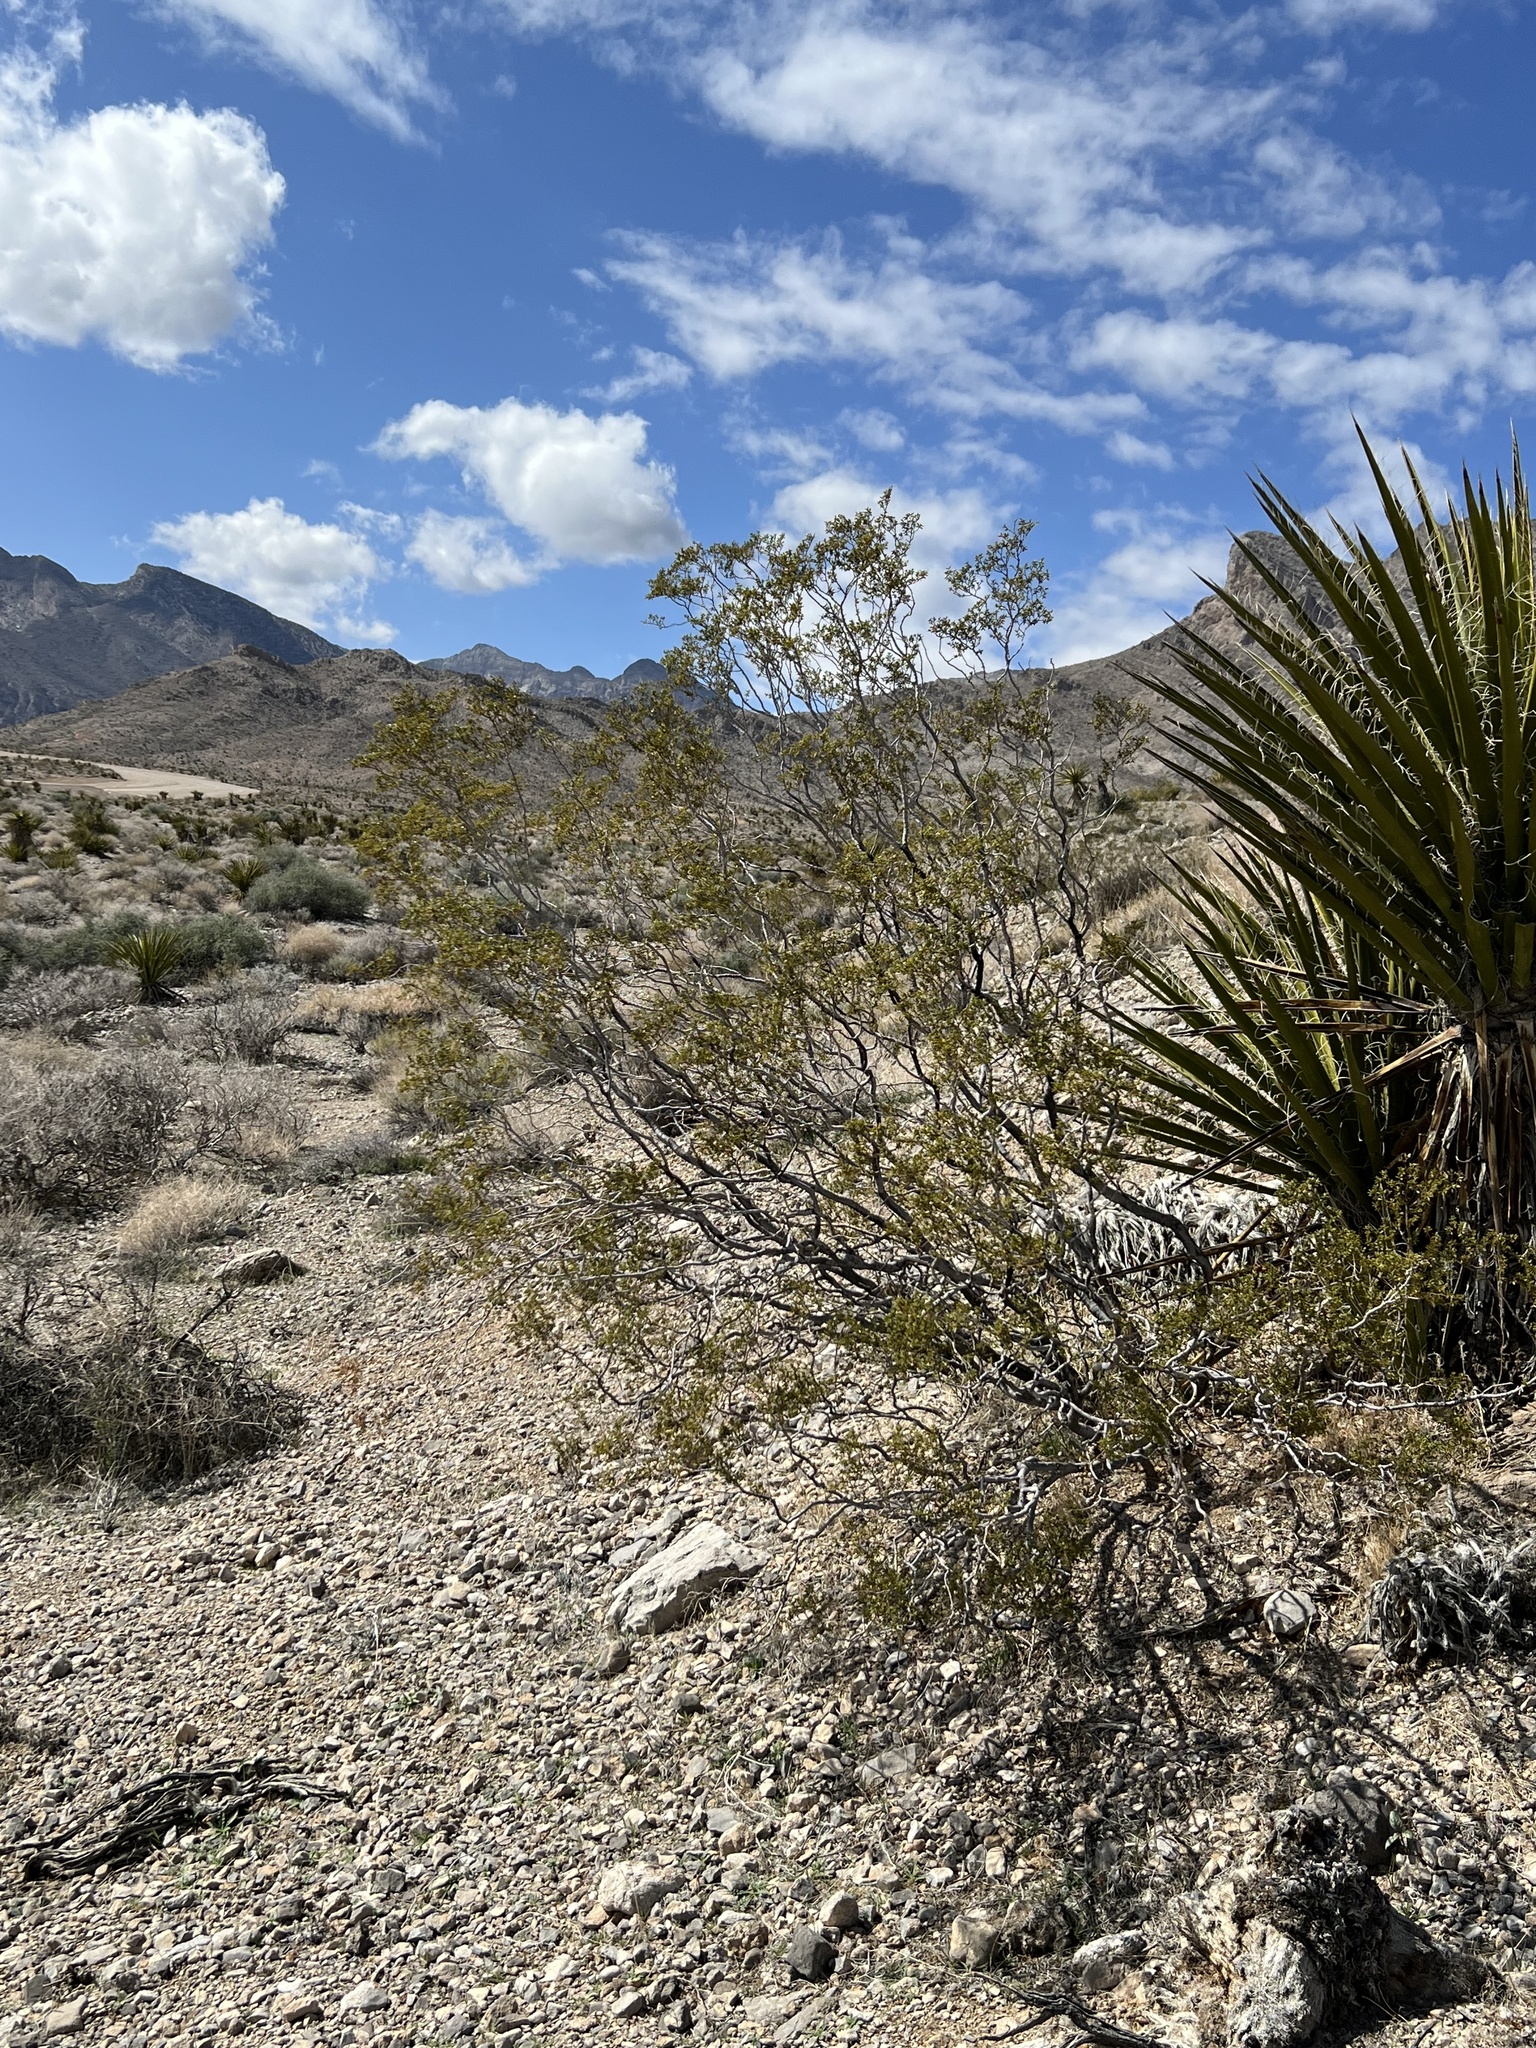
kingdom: Plantae
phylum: Tracheophyta
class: Magnoliopsida
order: Zygophyllales
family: Zygophyllaceae
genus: Larrea
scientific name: Larrea tridentata
